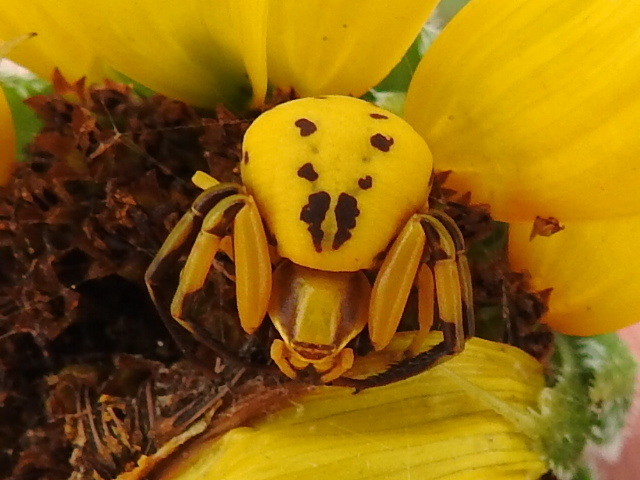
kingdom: Animalia
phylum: Arthropoda
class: Arachnida
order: Araneae
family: Thomisidae
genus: Misumenoides
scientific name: Misumenoides formosipes
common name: White-banded crab spider
